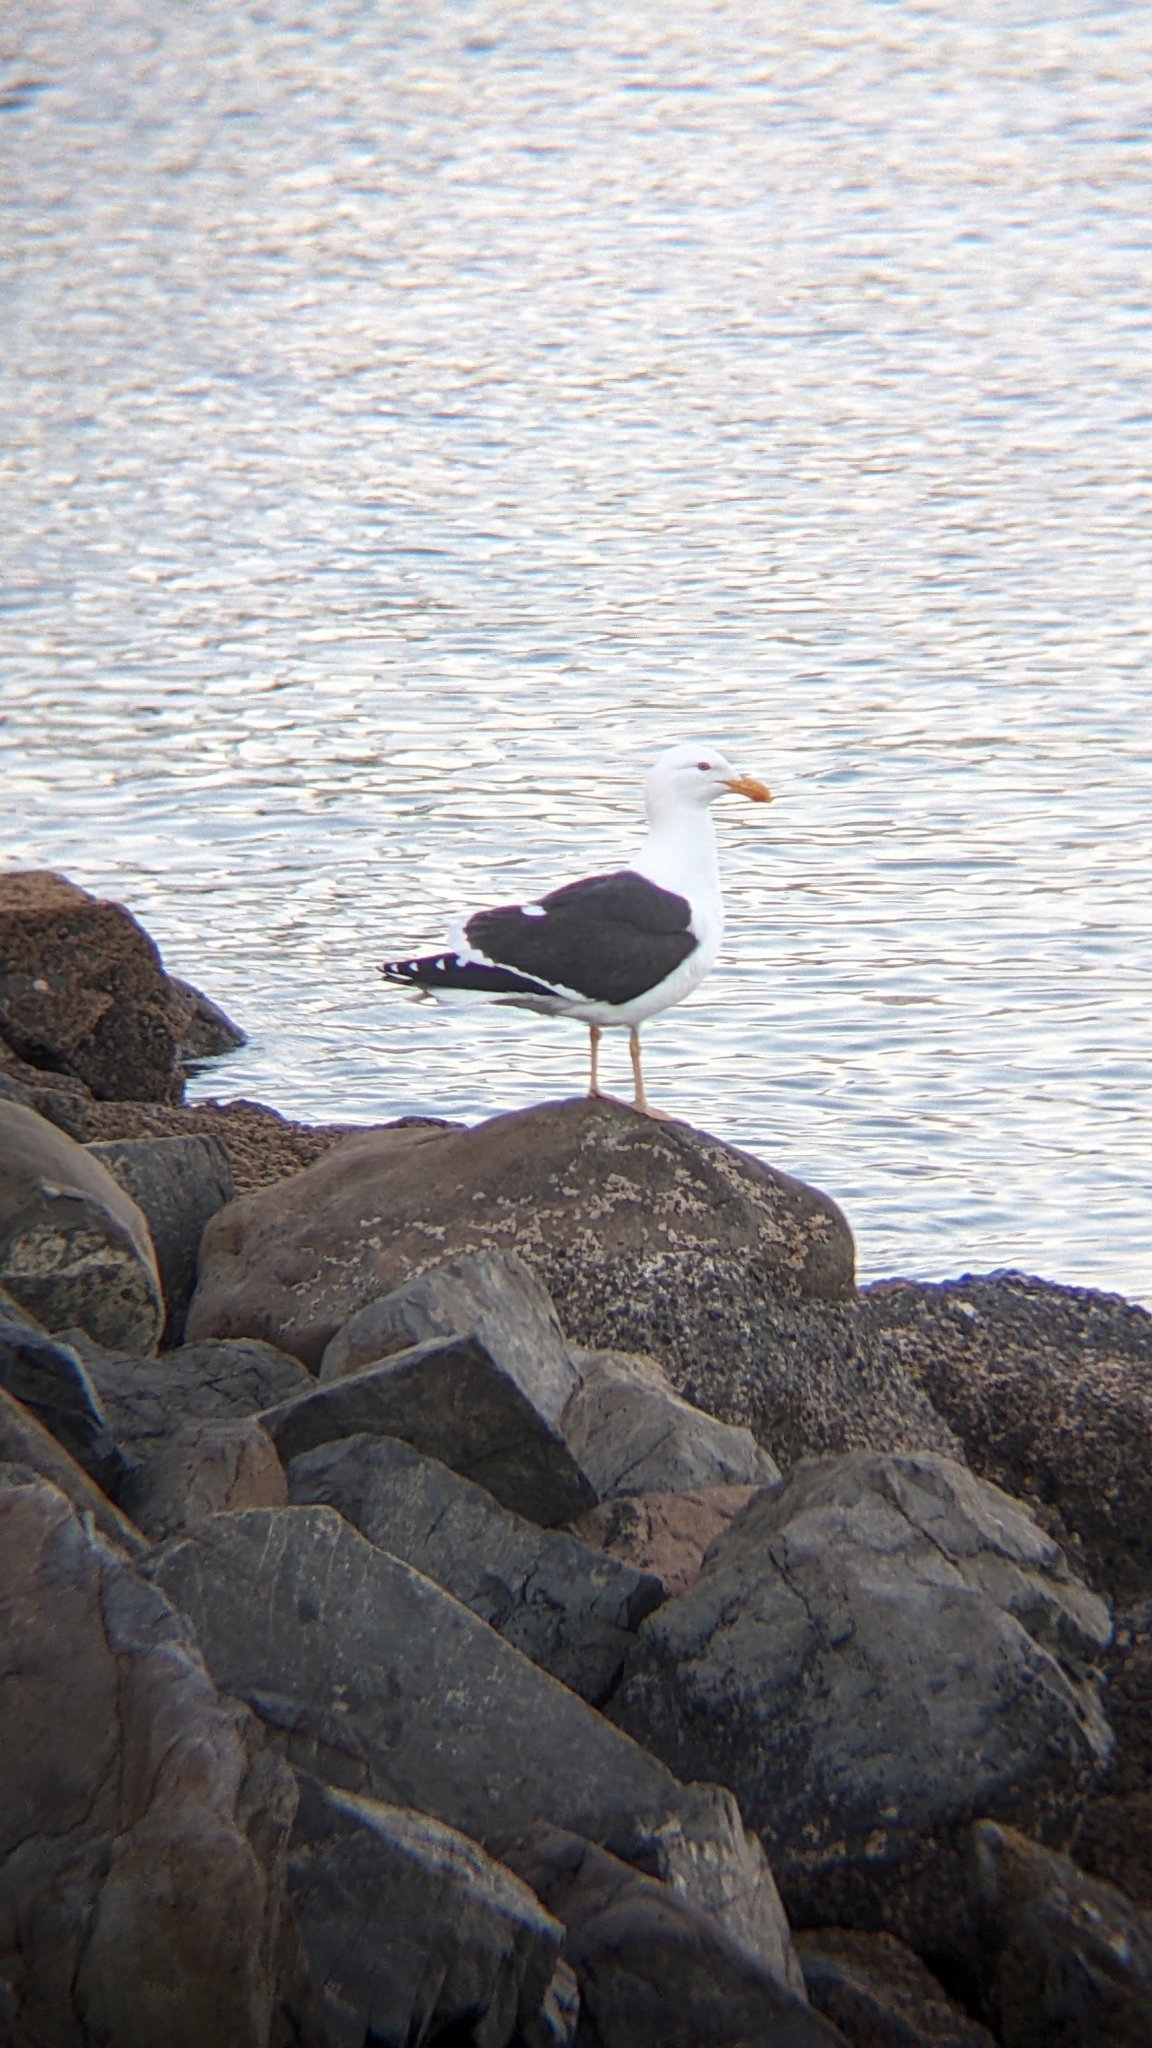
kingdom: Animalia
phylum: Chordata
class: Aves
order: Charadriiformes
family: Laridae
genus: Larus
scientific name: Larus dominicanus
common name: Kelp gull
